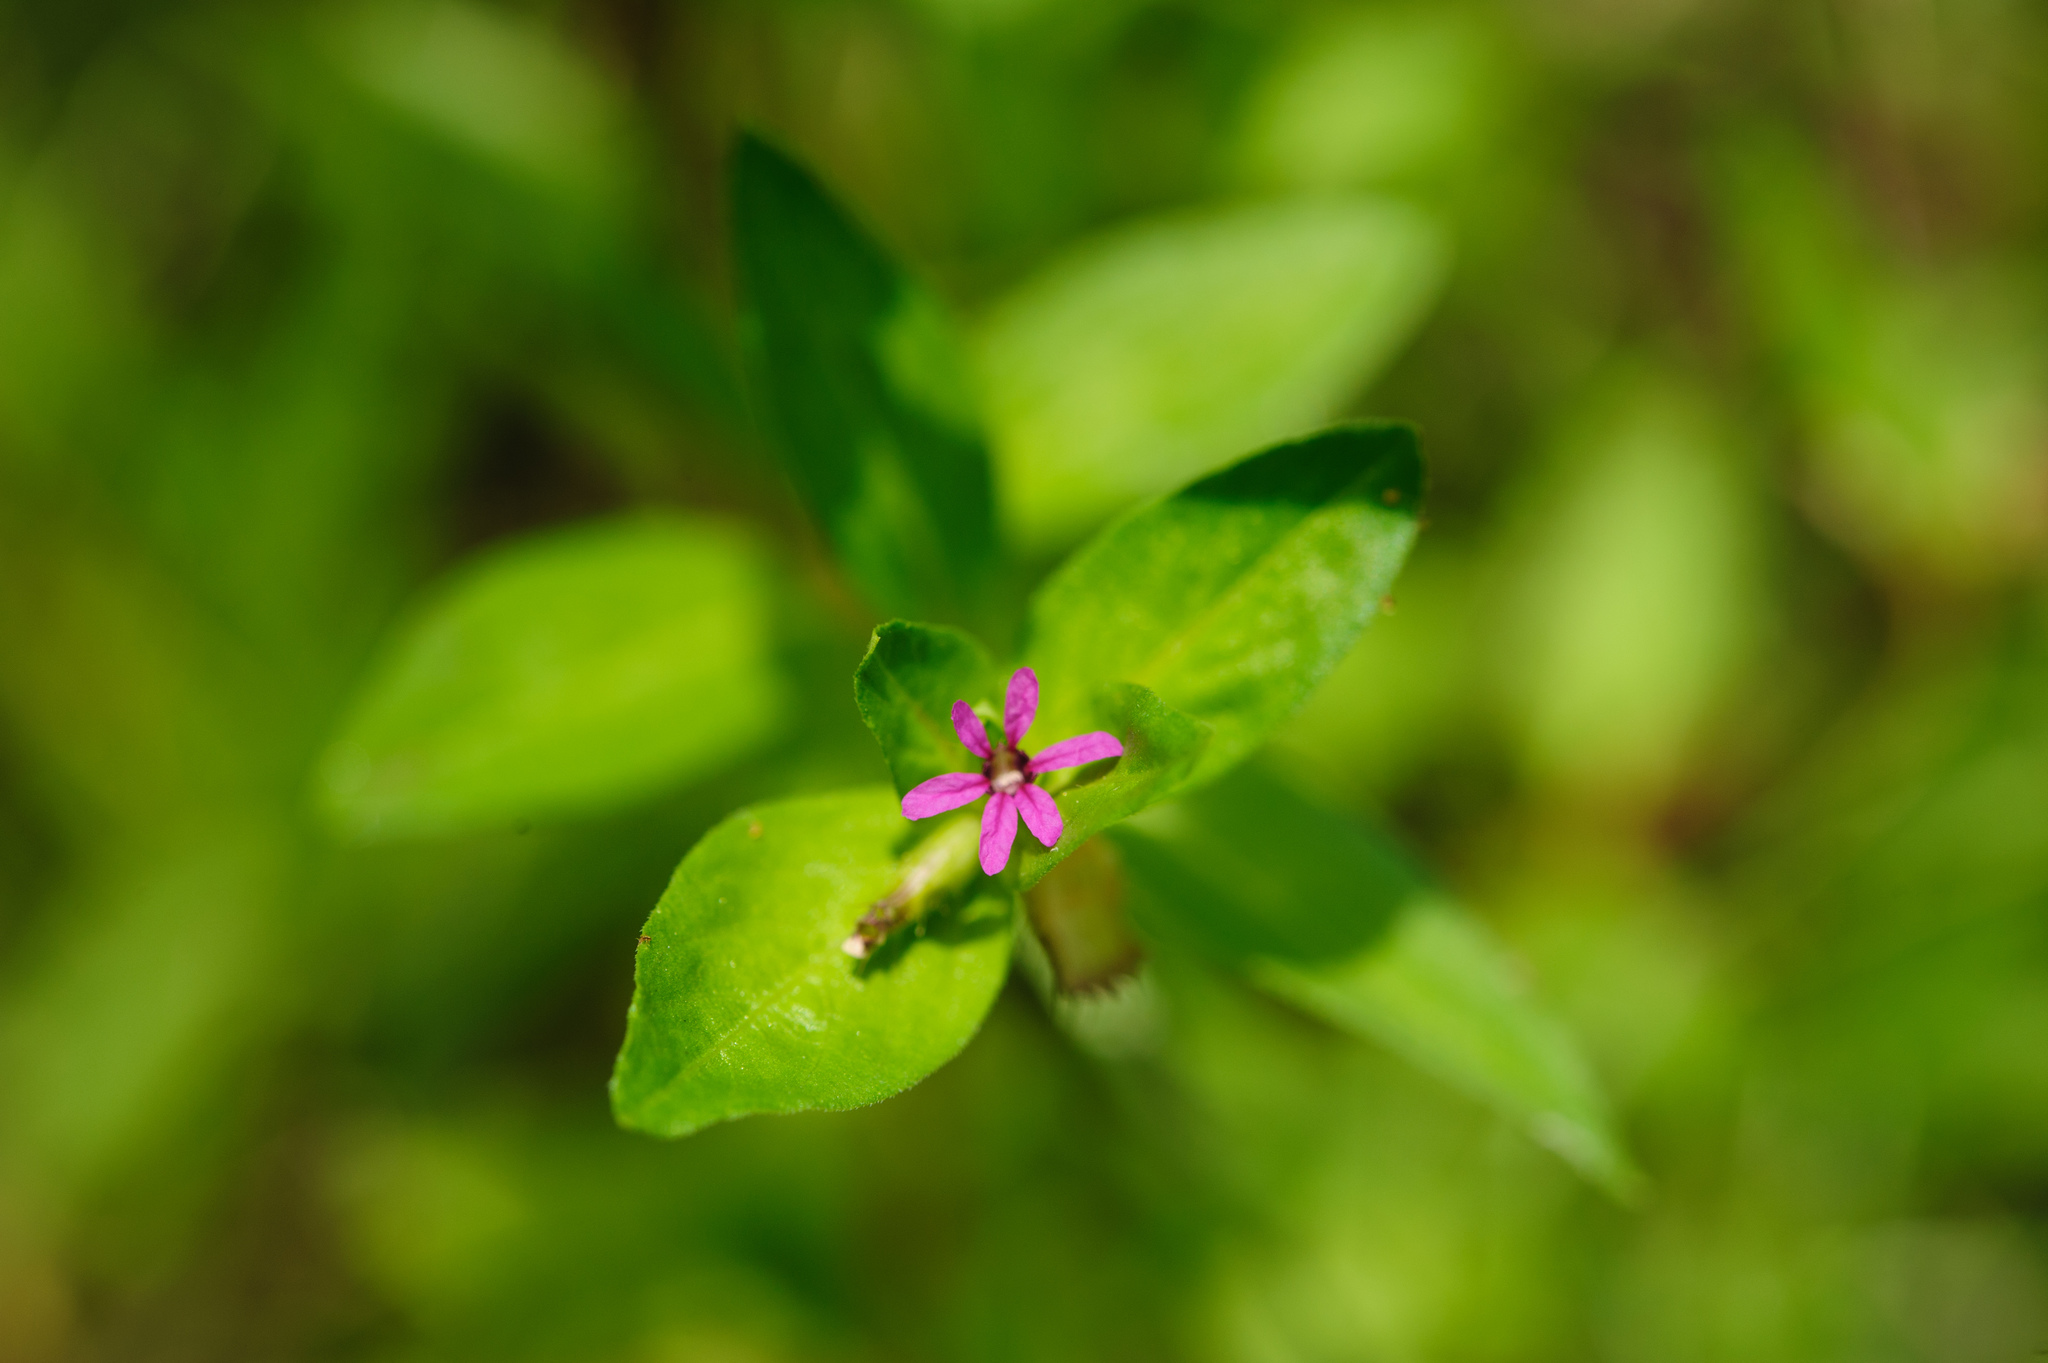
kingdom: Plantae
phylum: Tracheophyta
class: Magnoliopsida
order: Myrtales
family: Lythraceae
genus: Cuphea
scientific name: Cuphea carthagenensis
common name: Colombian waxweed
